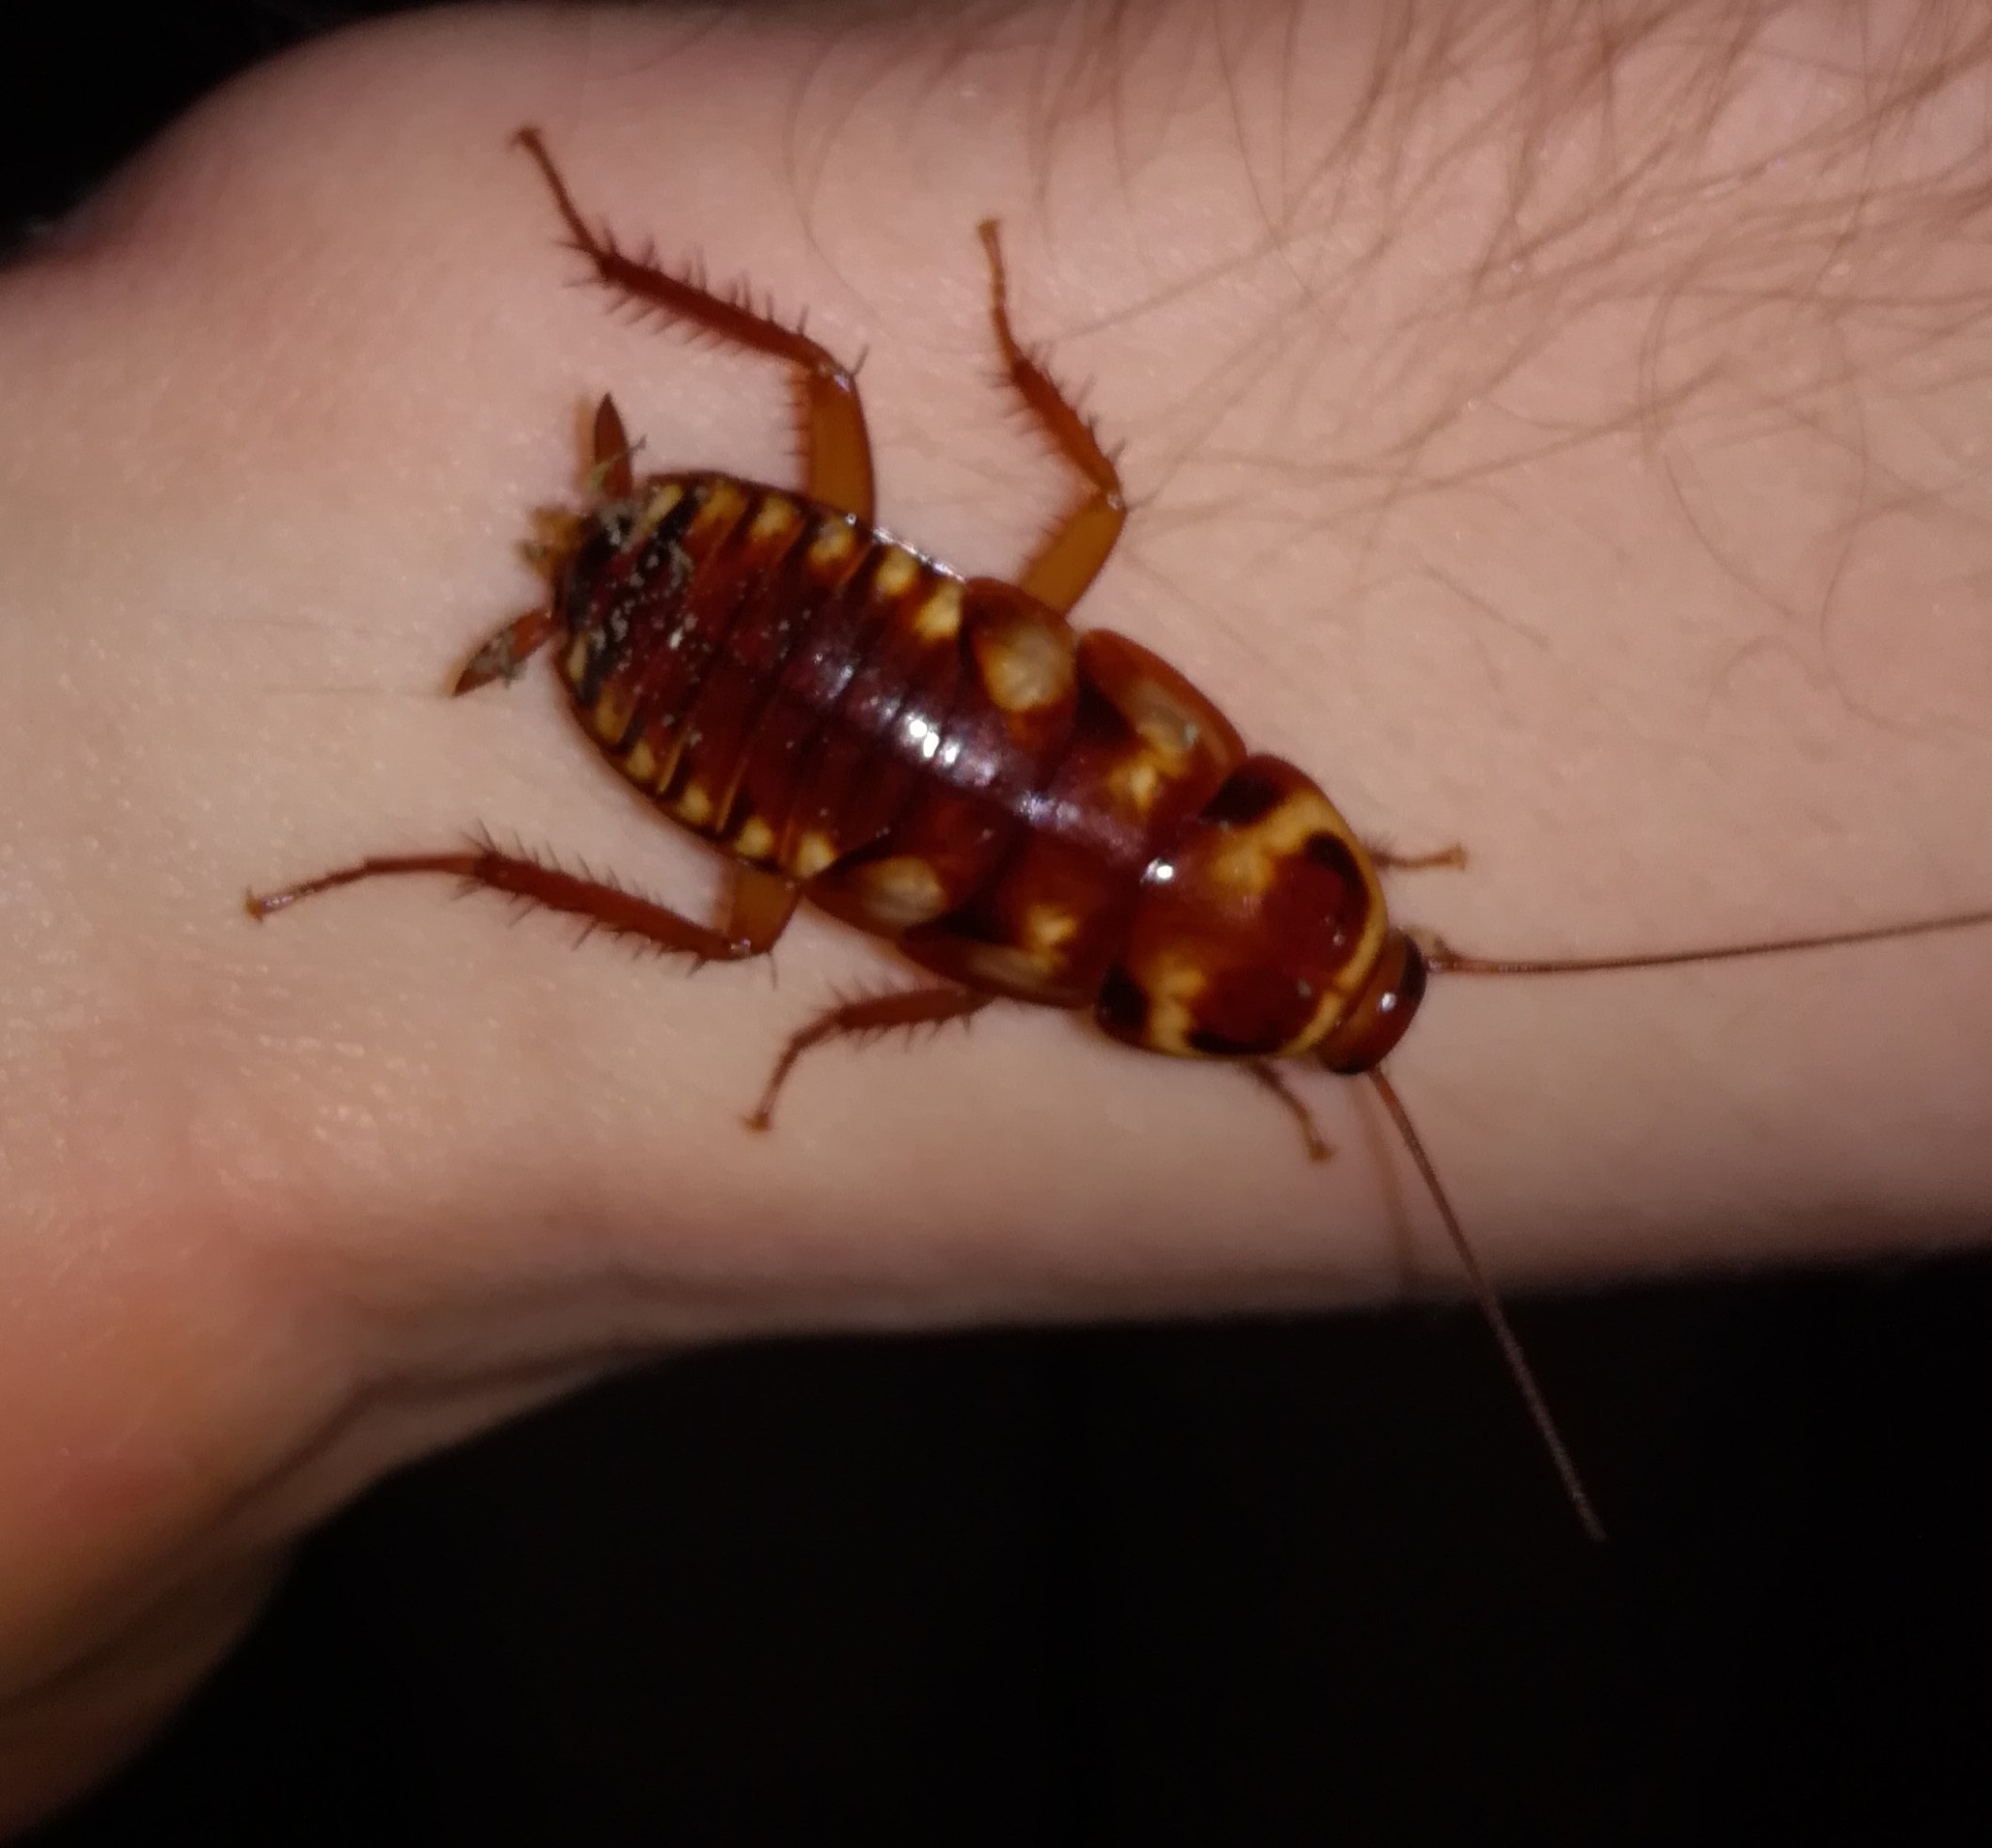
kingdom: Animalia
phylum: Arthropoda
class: Insecta
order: Blattodea
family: Blattidae
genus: Periplaneta
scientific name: Periplaneta australasiae
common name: Australian cockroach
